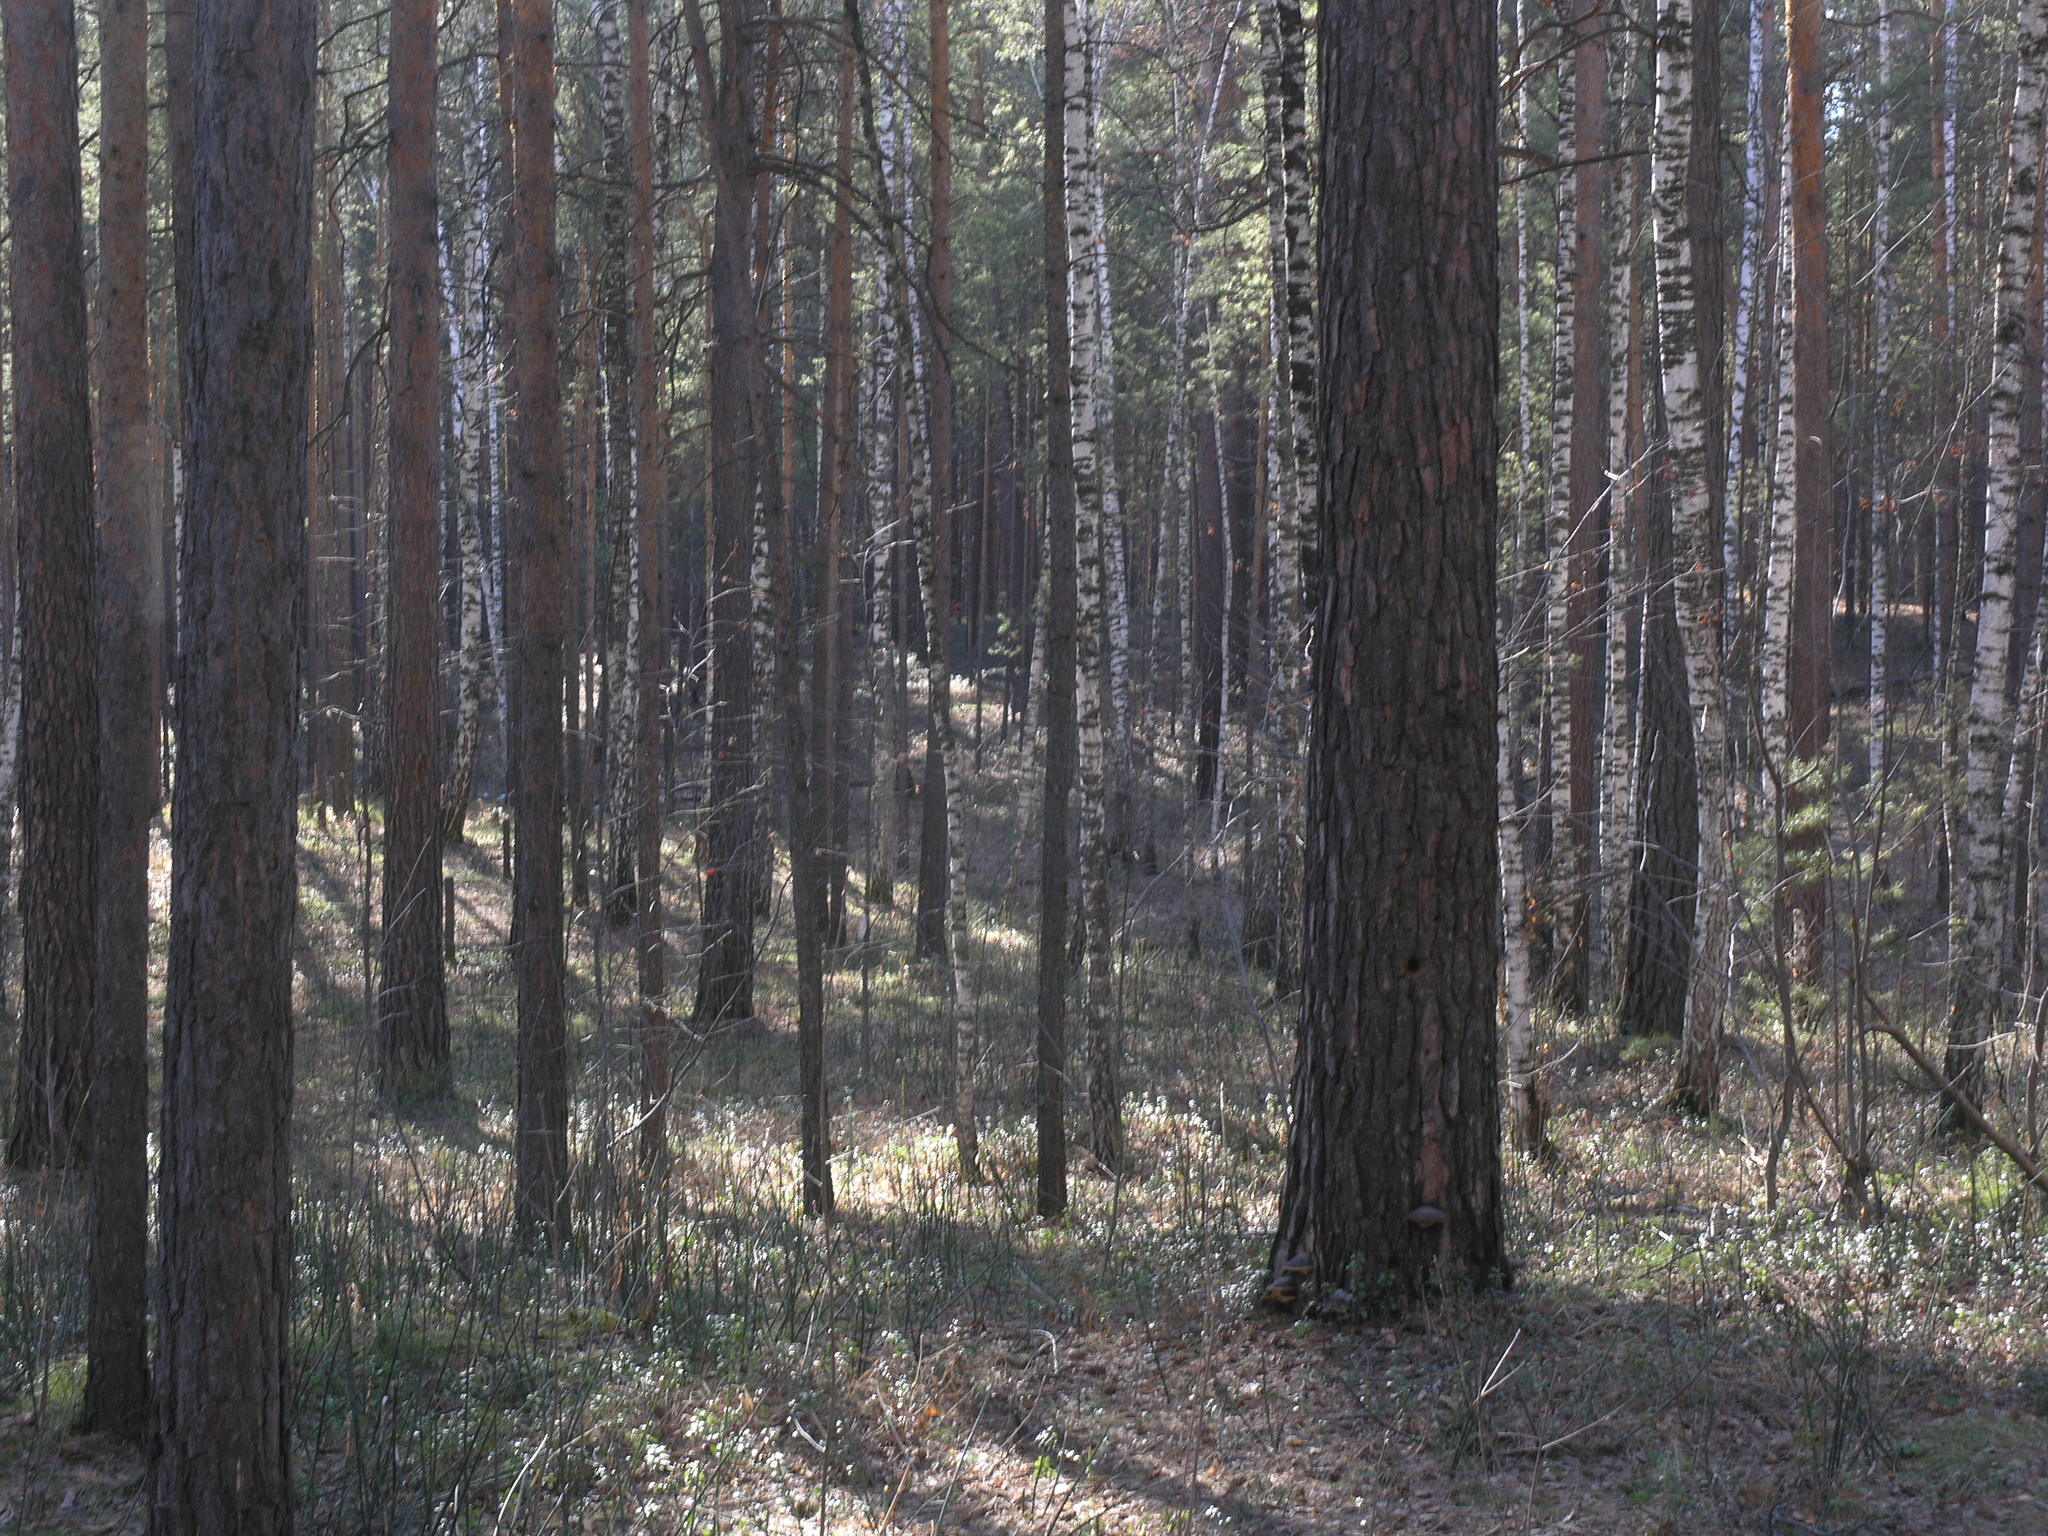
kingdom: Plantae
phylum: Tracheophyta
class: Pinopsida
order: Pinales
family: Pinaceae
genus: Pinus
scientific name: Pinus sylvestris
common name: Scots pine
